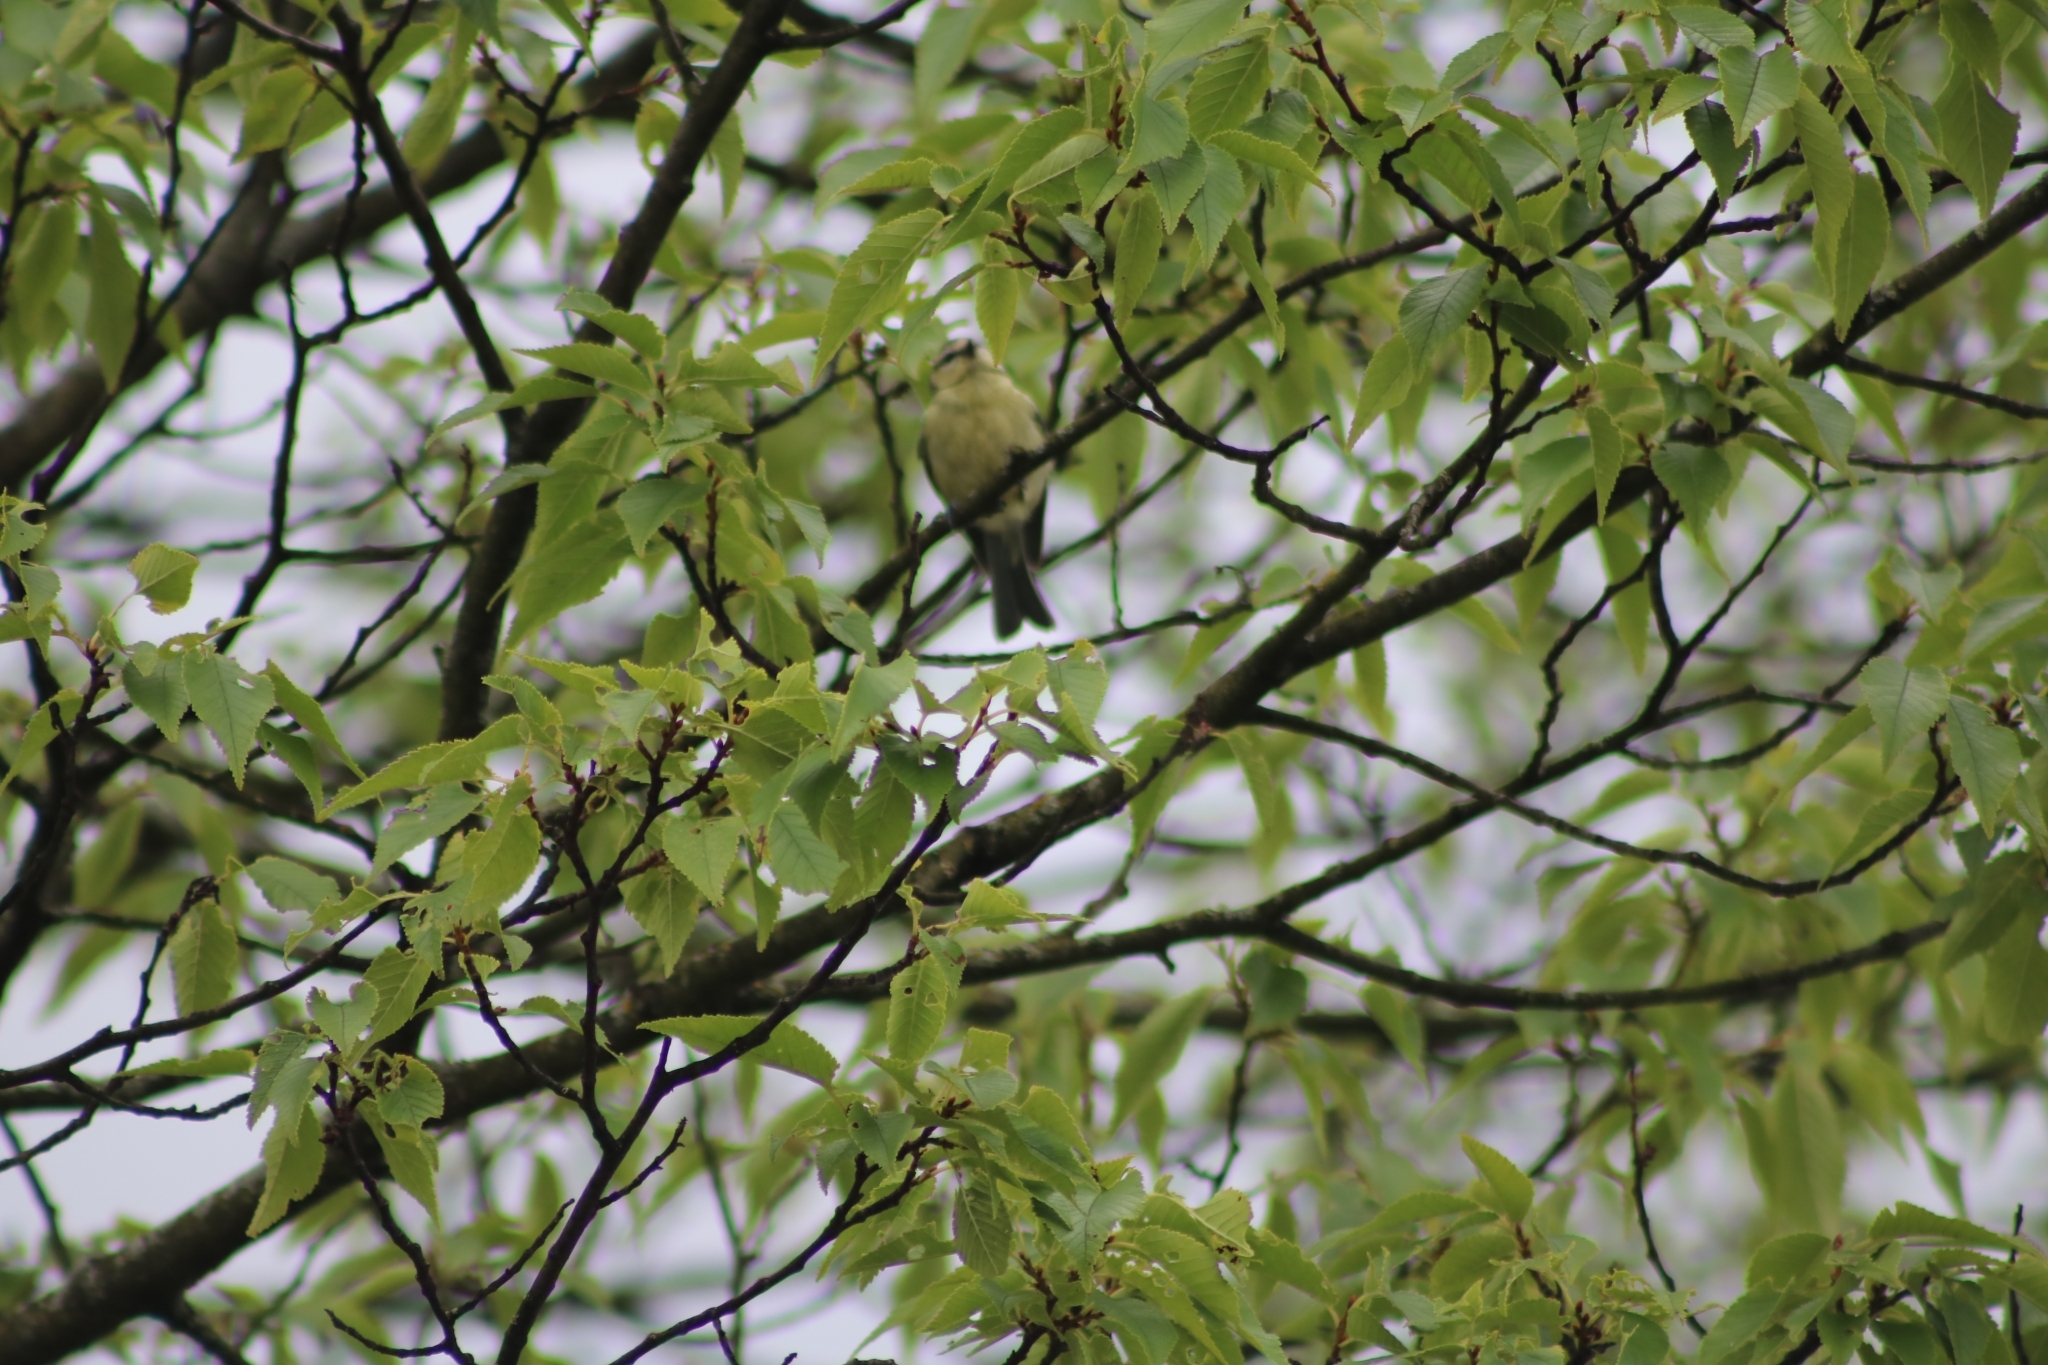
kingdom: Animalia
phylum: Chordata
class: Aves
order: Passeriformes
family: Paridae
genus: Cyanistes
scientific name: Cyanistes caeruleus
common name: Eurasian blue tit
